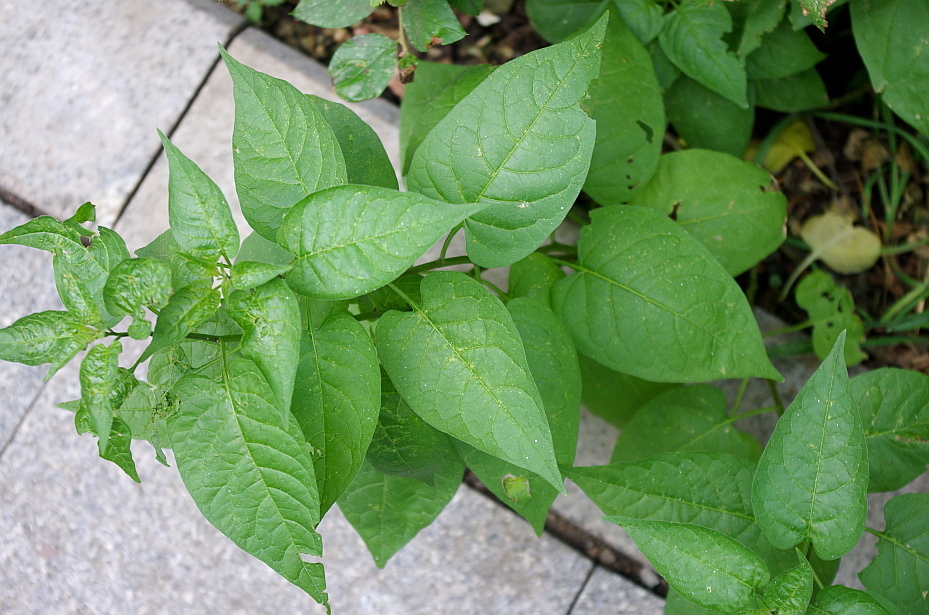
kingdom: Plantae
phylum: Tracheophyta
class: Magnoliopsida
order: Solanales
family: Solanaceae
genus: Solanum
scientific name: Solanum dulcamara
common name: Climbing nightshade
